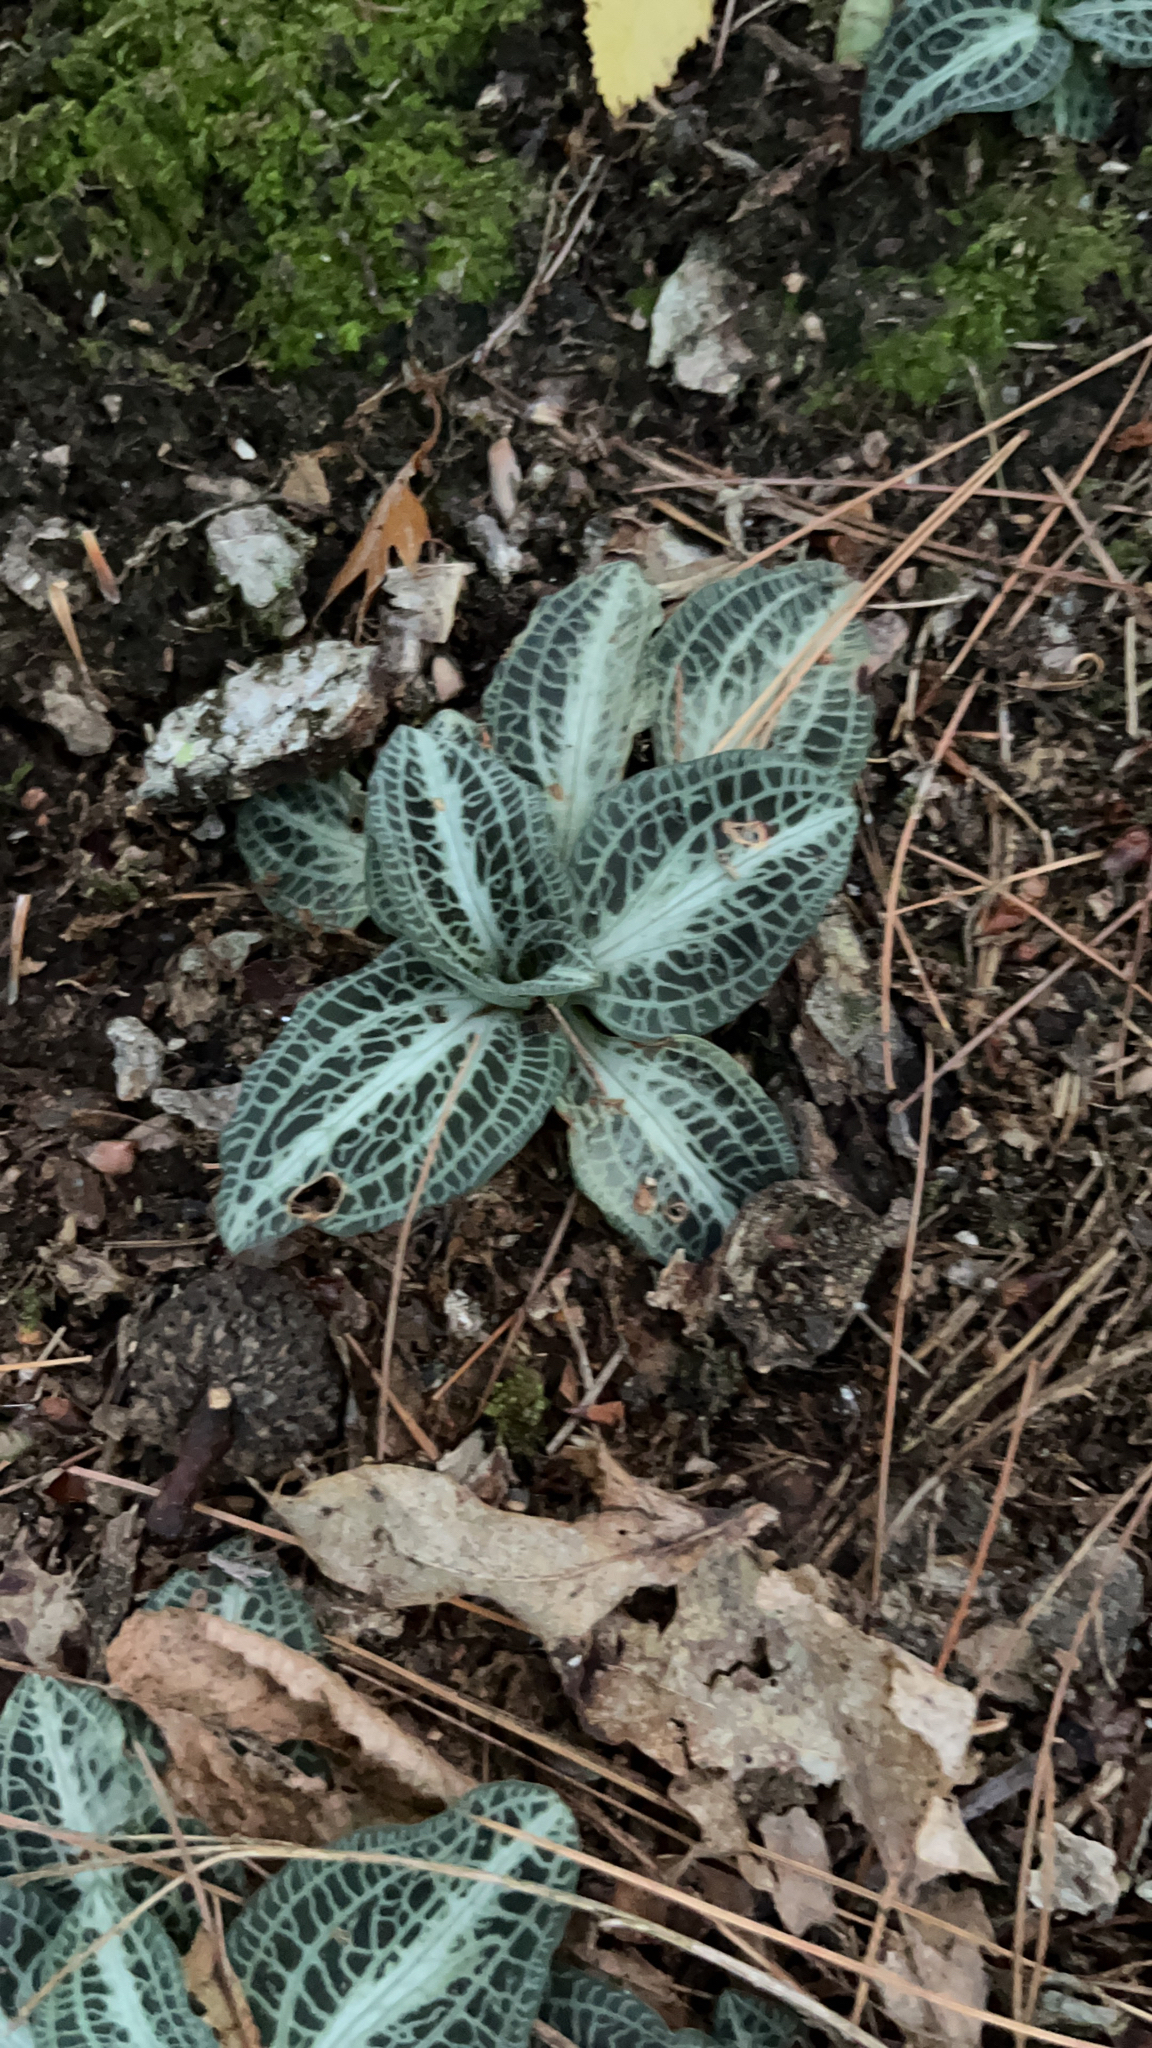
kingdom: Plantae
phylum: Tracheophyta
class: Liliopsida
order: Asparagales
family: Orchidaceae
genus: Goodyera
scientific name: Goodyera pubescens
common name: Downy rattlesnake-plantain
